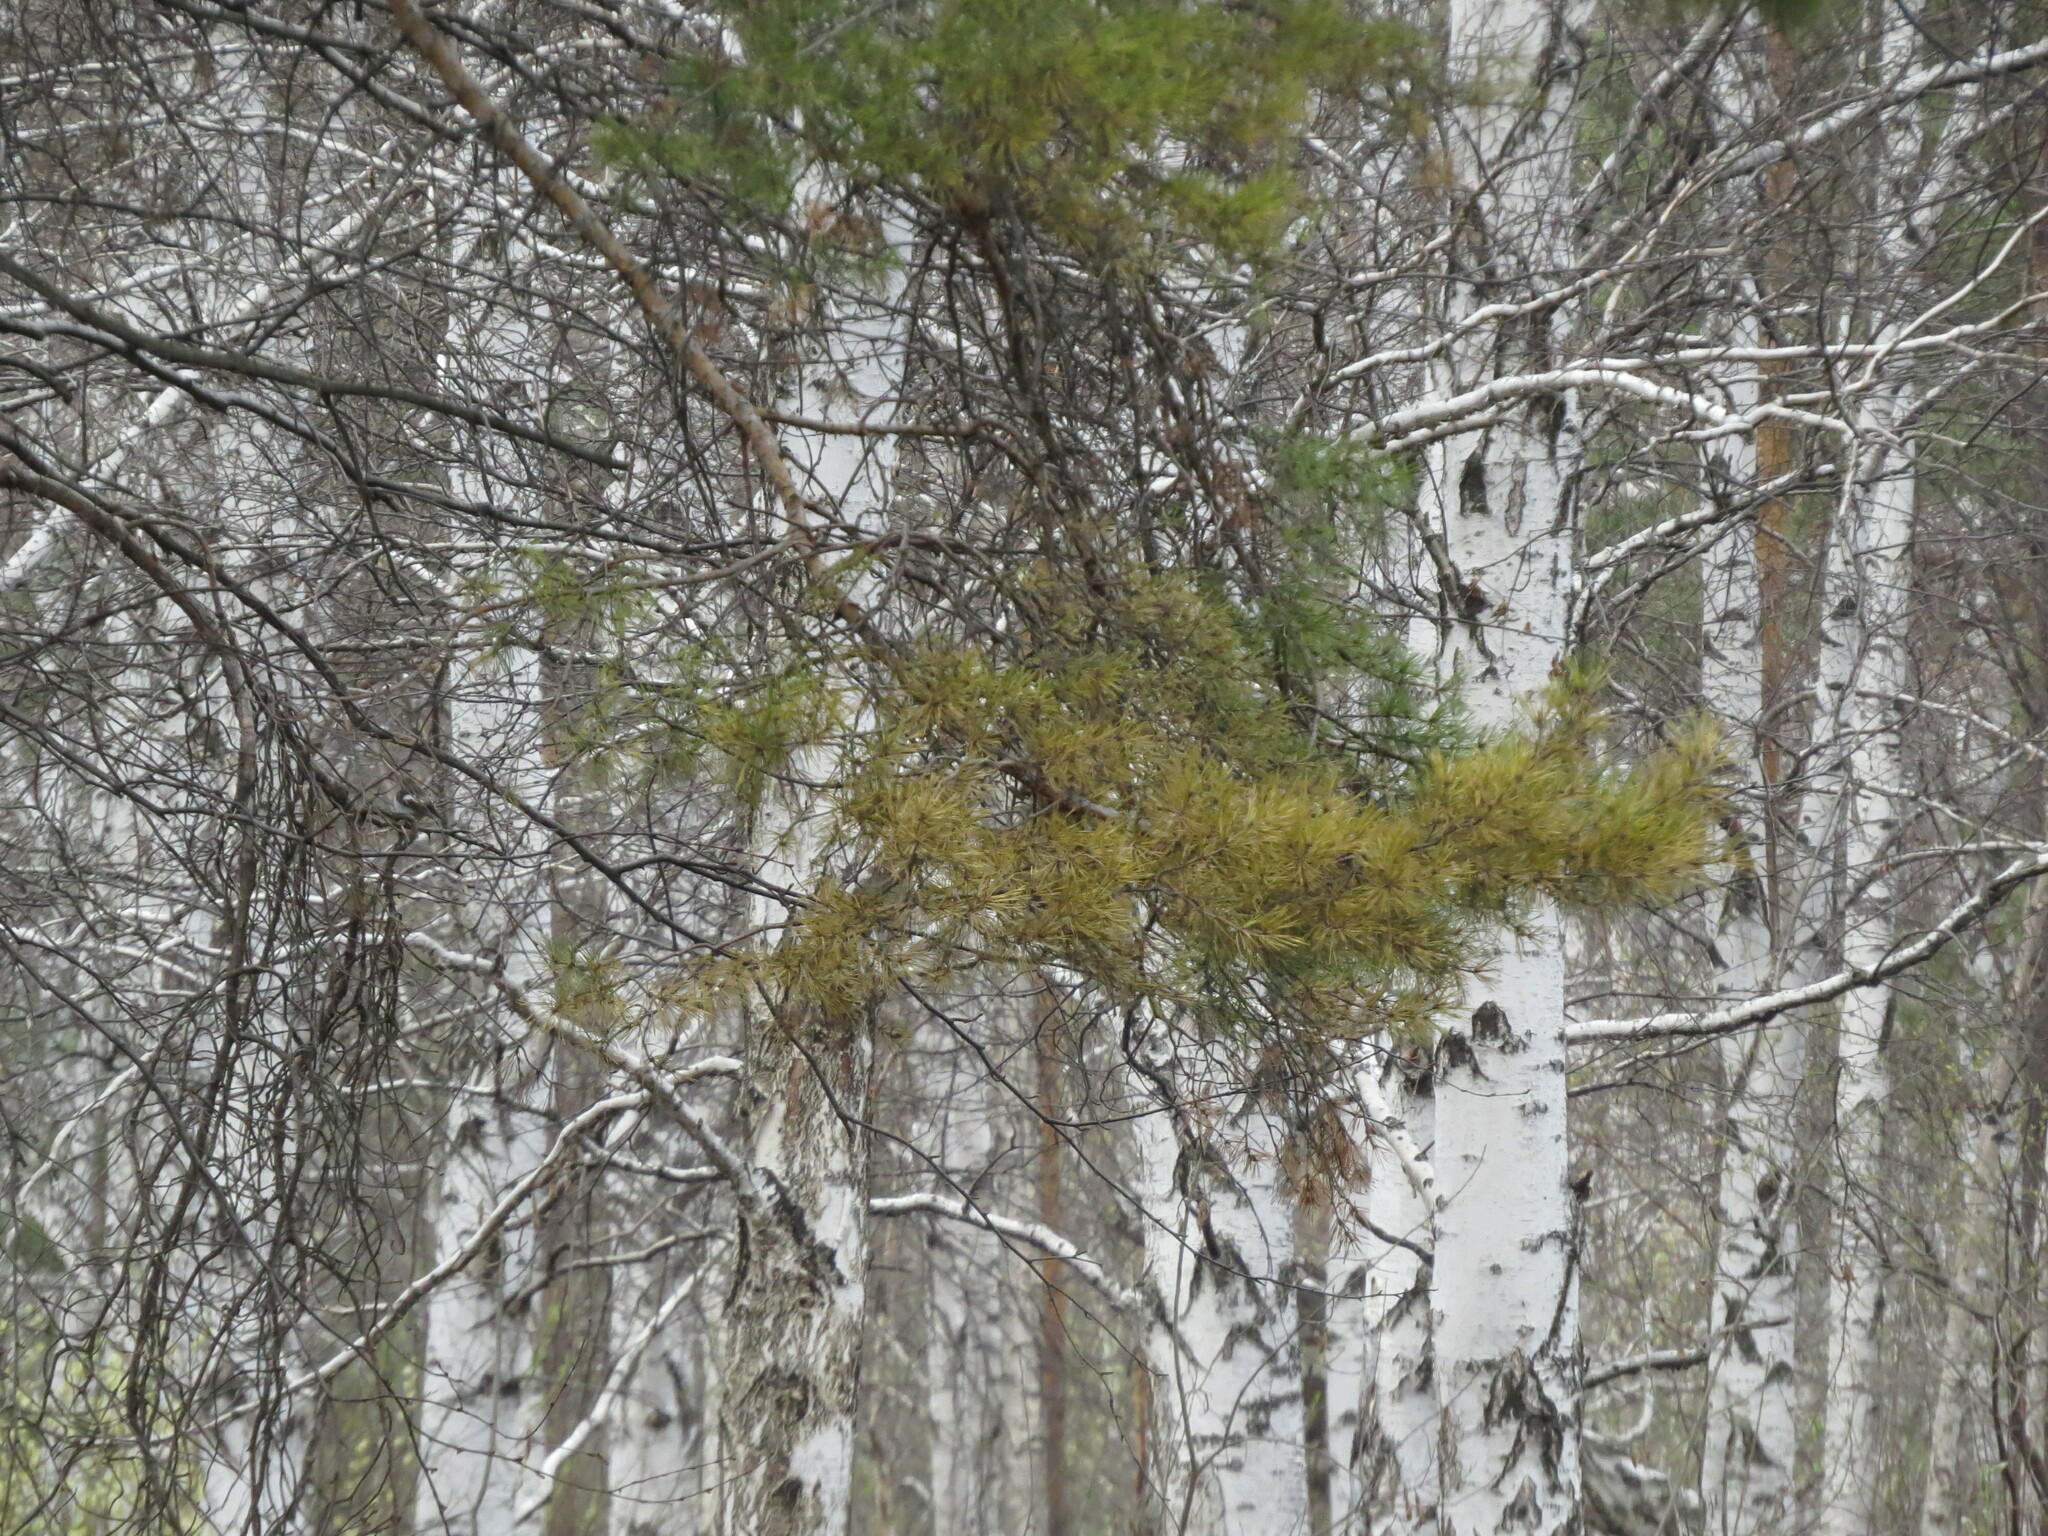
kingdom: Animalia
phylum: Chordata
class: Aves
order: Passeriformes
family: Muscicapidae
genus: Ficedula
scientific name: Ficedula hypoleuca
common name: European pied flycatcher
